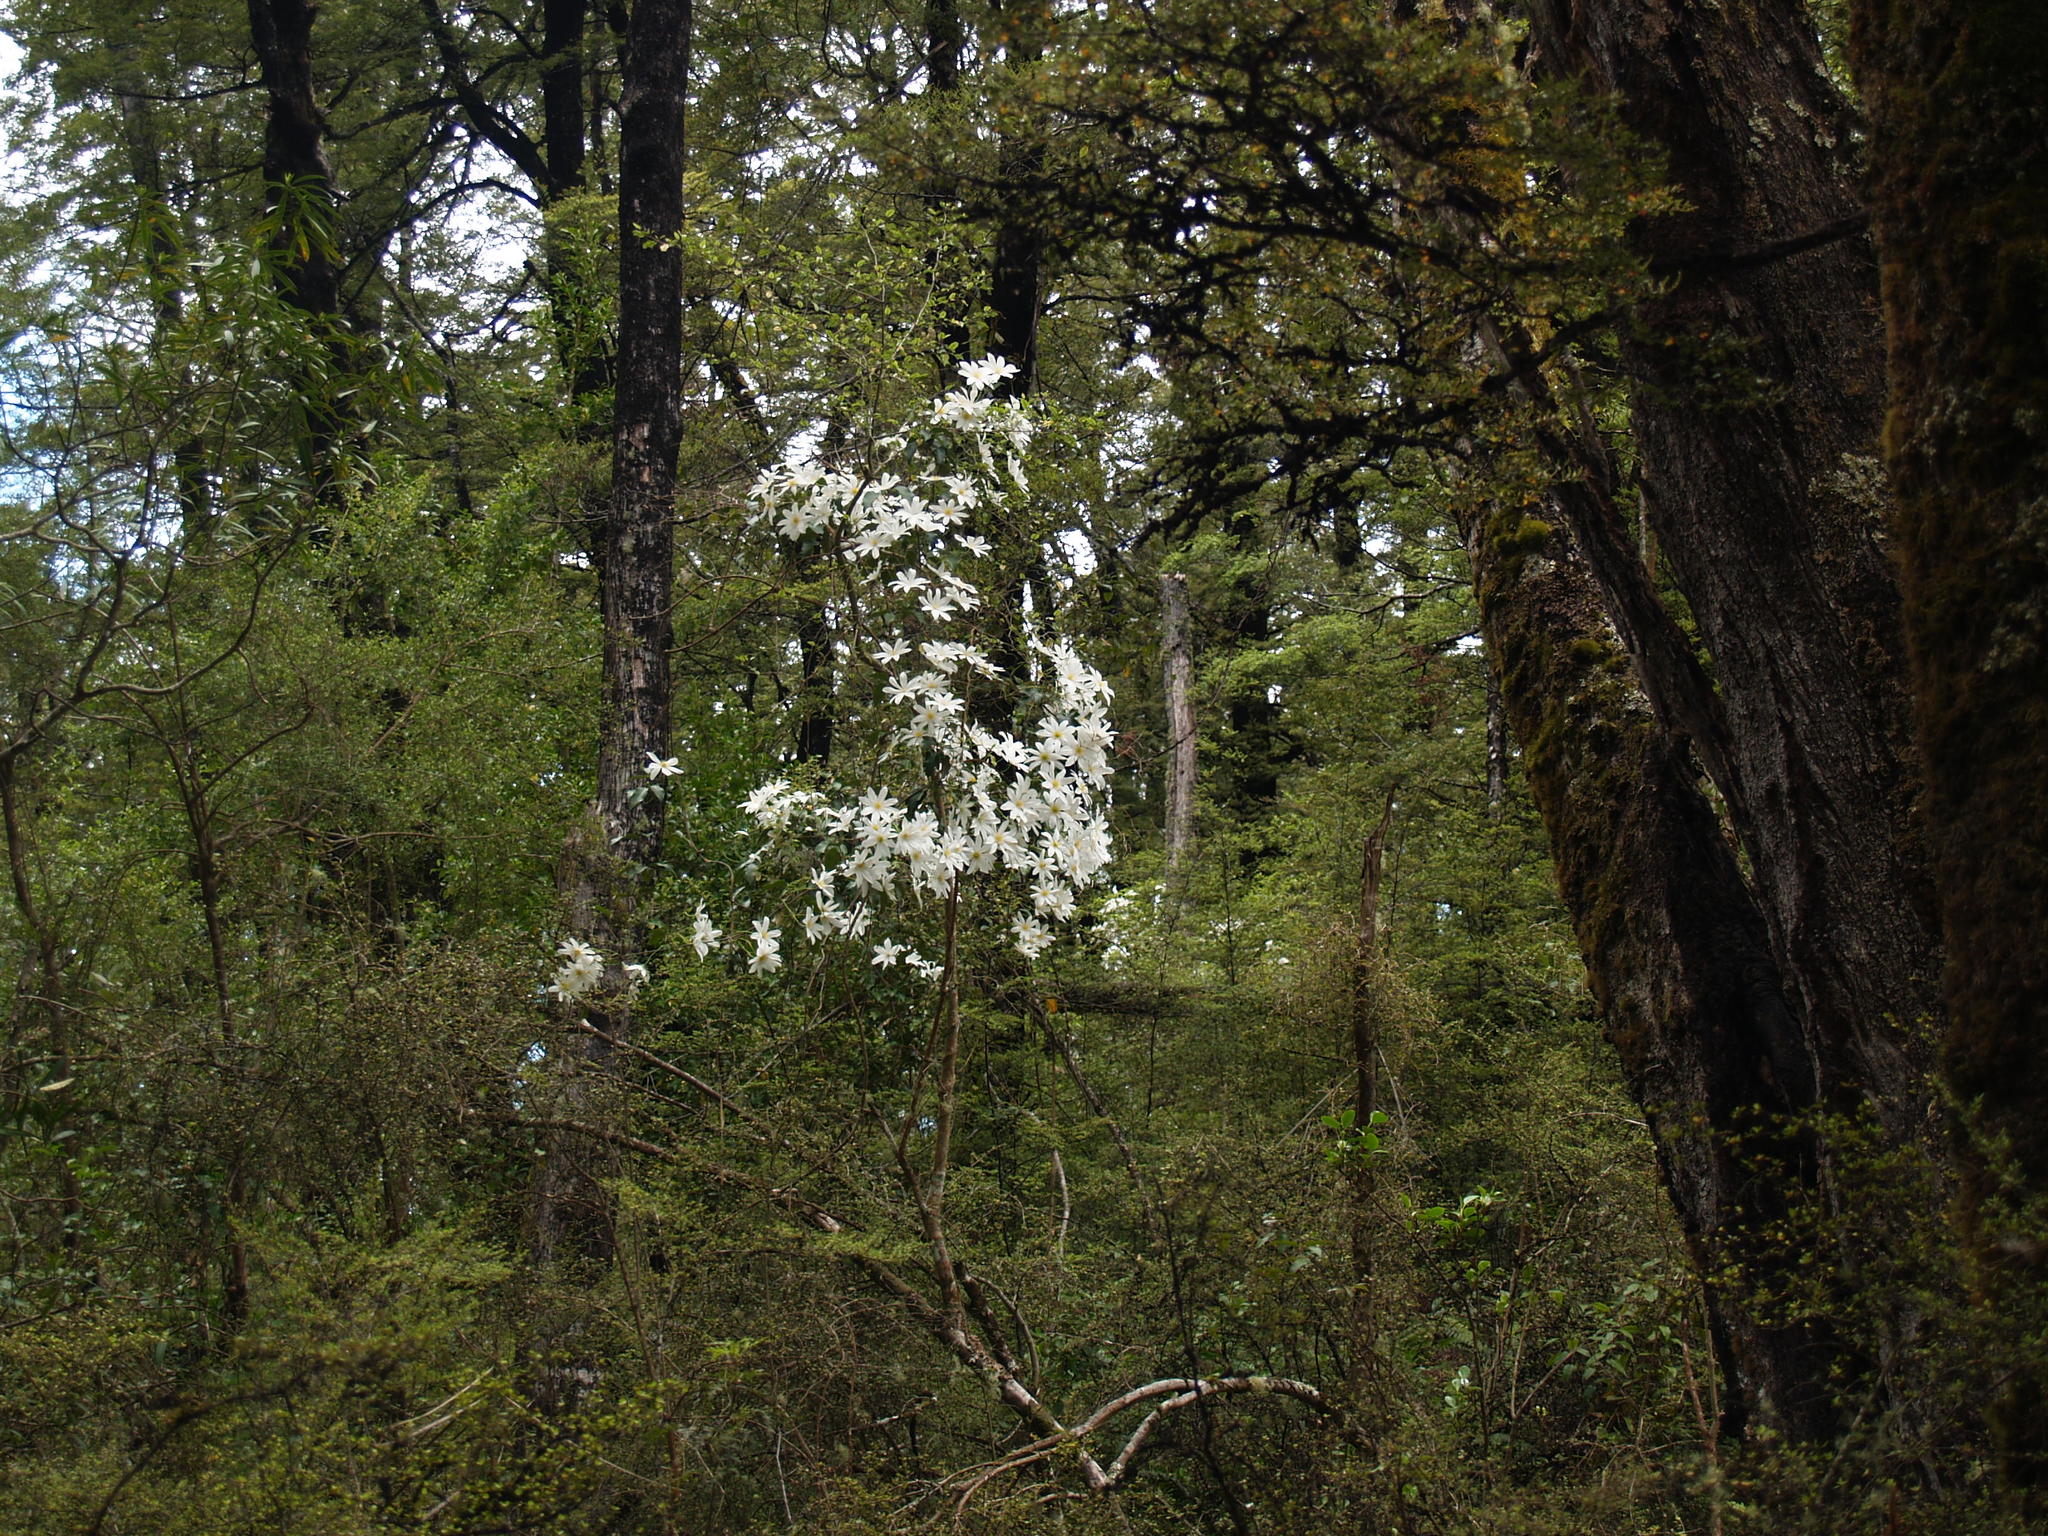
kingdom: Plantae
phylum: Tracheophyta
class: Magnoliopsida
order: Ranunculales
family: Ranunculaceae
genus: Clematis
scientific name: Clematis paniculata
